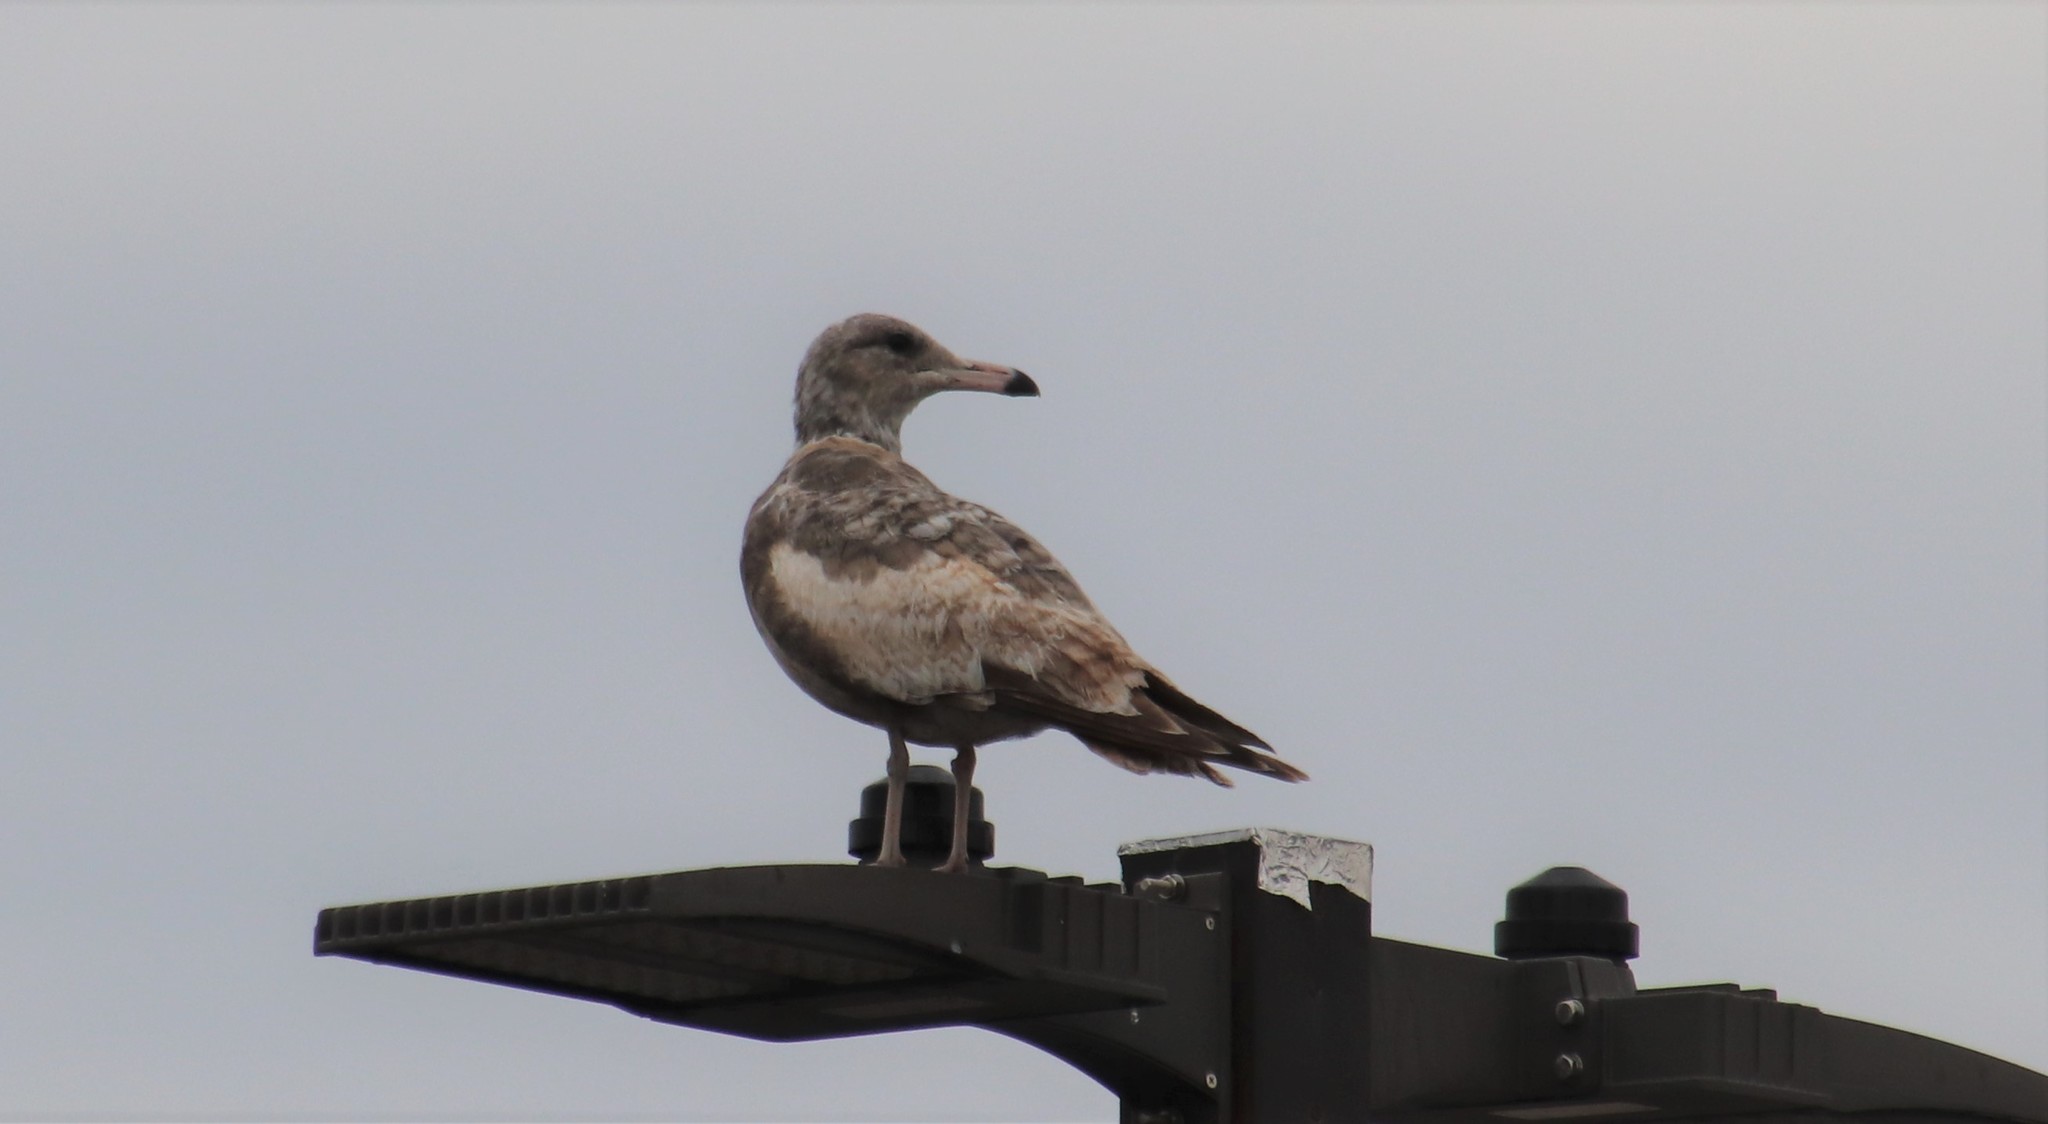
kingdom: Animalia
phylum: Chordata
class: Aves
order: Charadriiformes
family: Laridae
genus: Larus
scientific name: Larus californicus
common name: California gull
